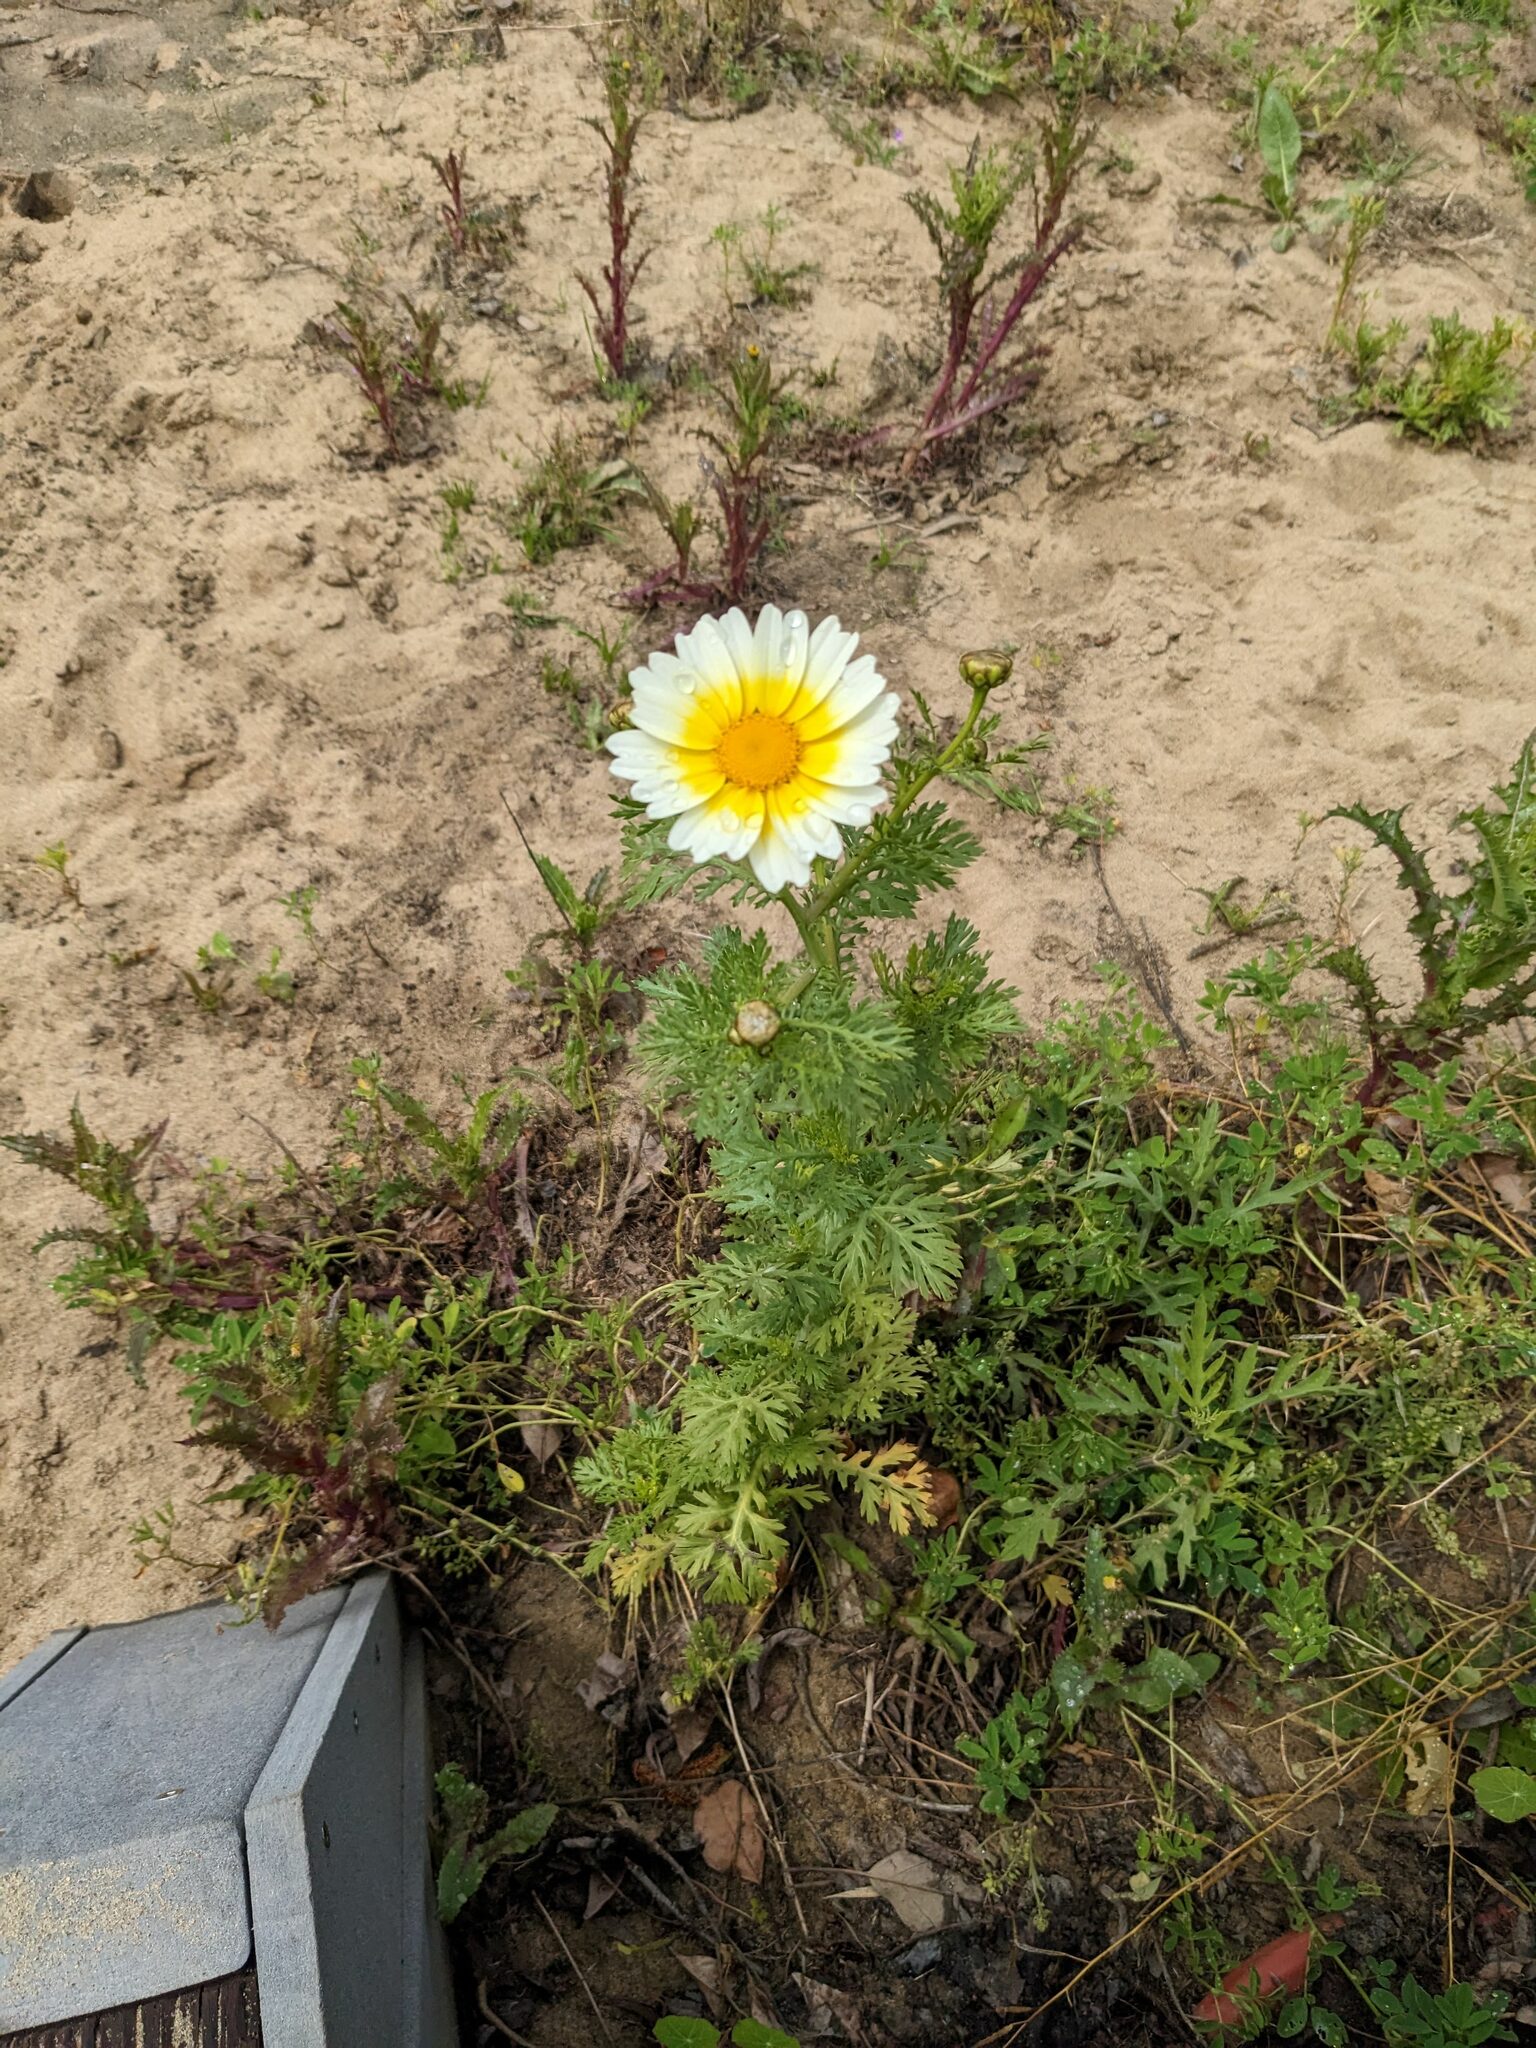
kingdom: Plantae
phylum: Tracheophyta
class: Magnoliopsida
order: Asterales
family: Asteraceae
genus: Glebionis
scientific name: Glebionis coronaria
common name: Crowndaisy
